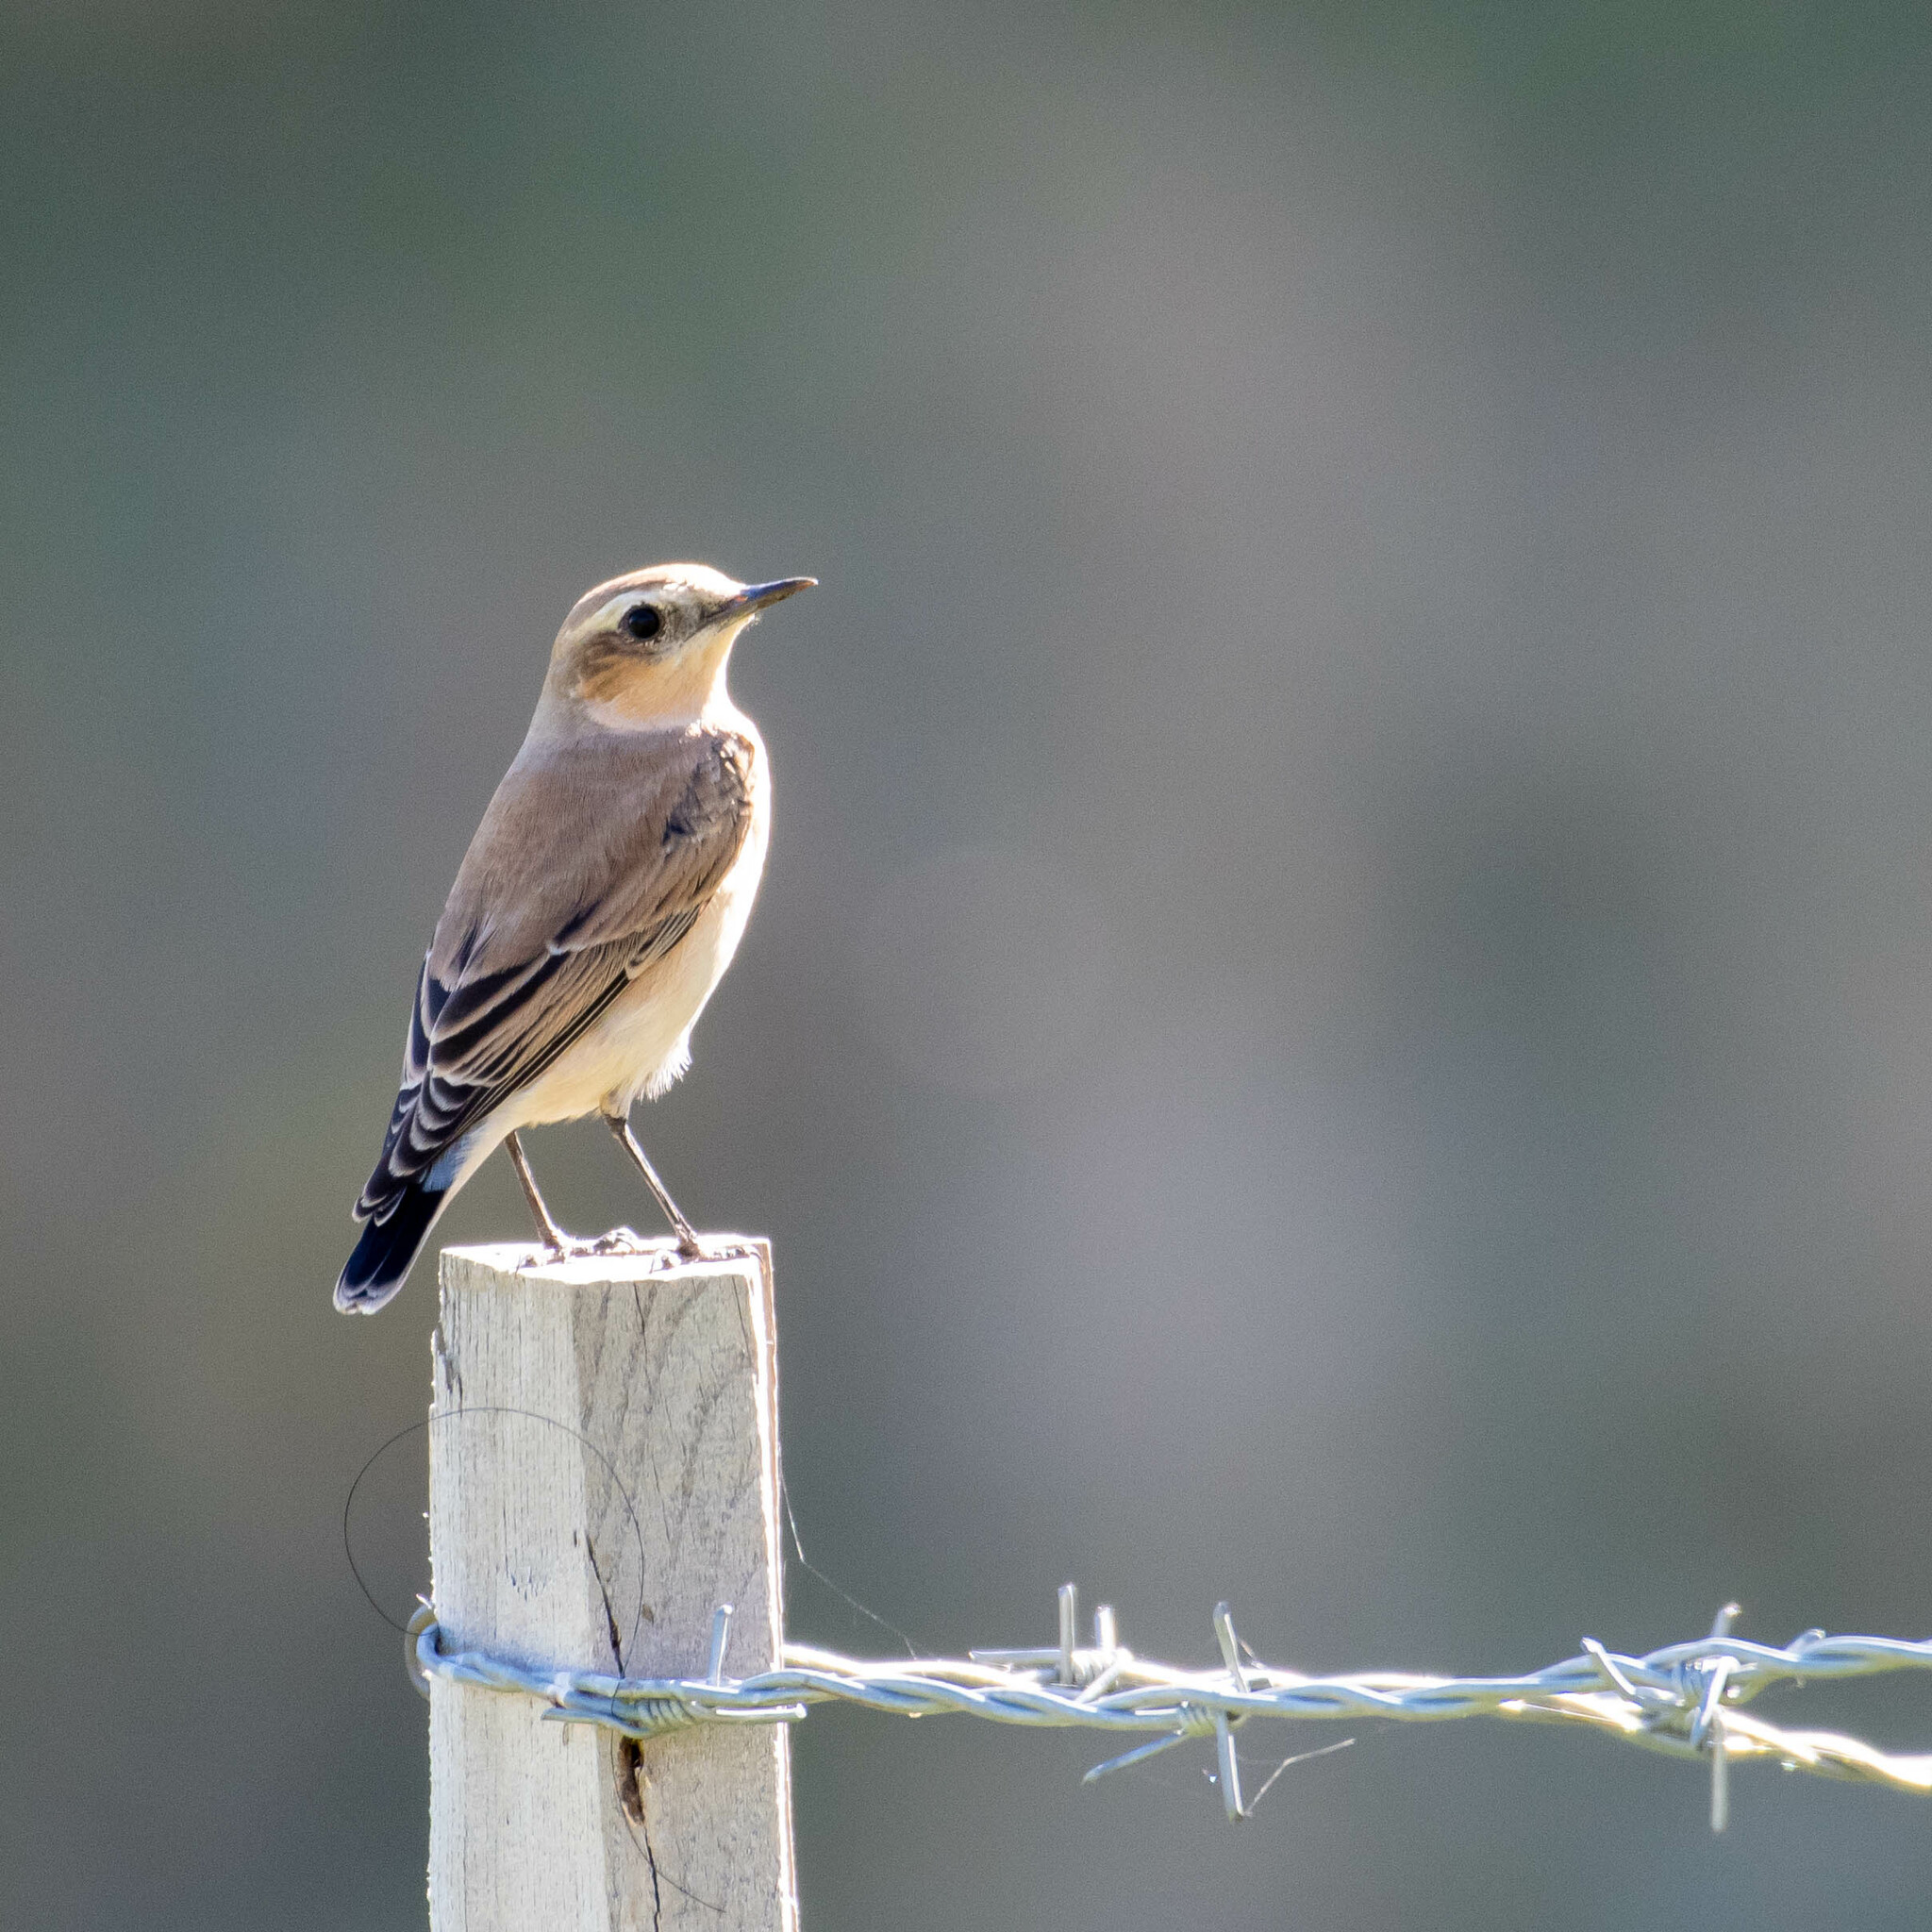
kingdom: Animalia
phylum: Chordata
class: Aves
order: Passeriformes
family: Muscicapidae
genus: Oenanthe
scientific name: Oenanthe oenanthe
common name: Northern wheatear
